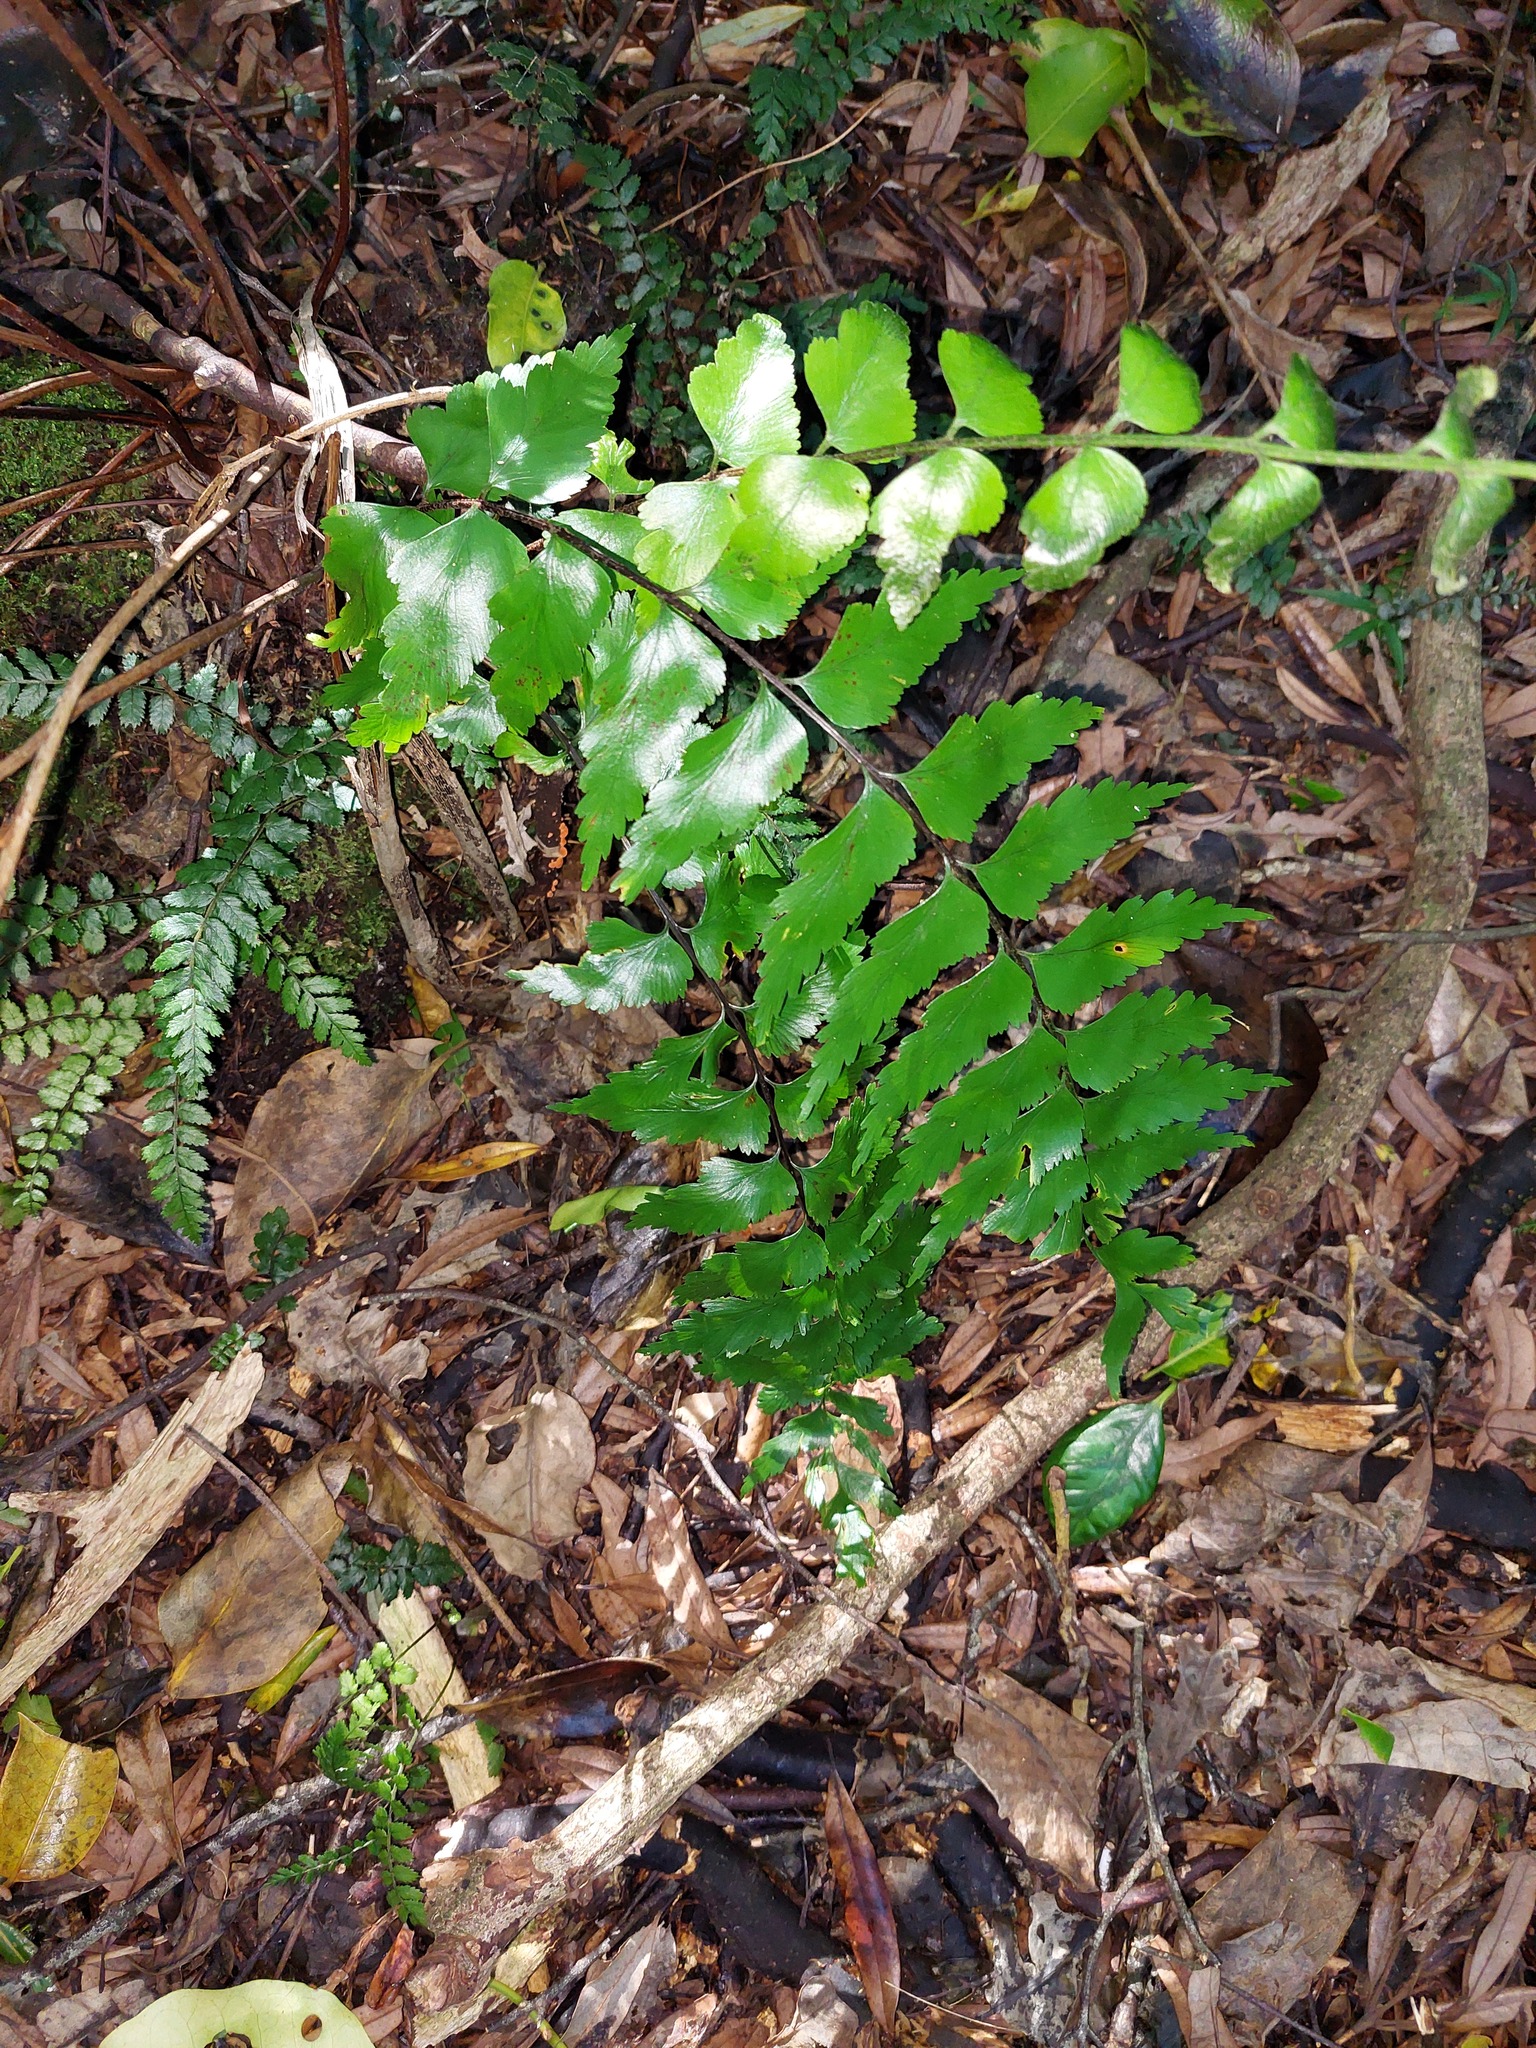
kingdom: Plantae
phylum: Tracheophyta
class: Polypodiopsida
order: Polypodiales
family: Aspleniaceae
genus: Asplenium
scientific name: Asplenium polyodon
